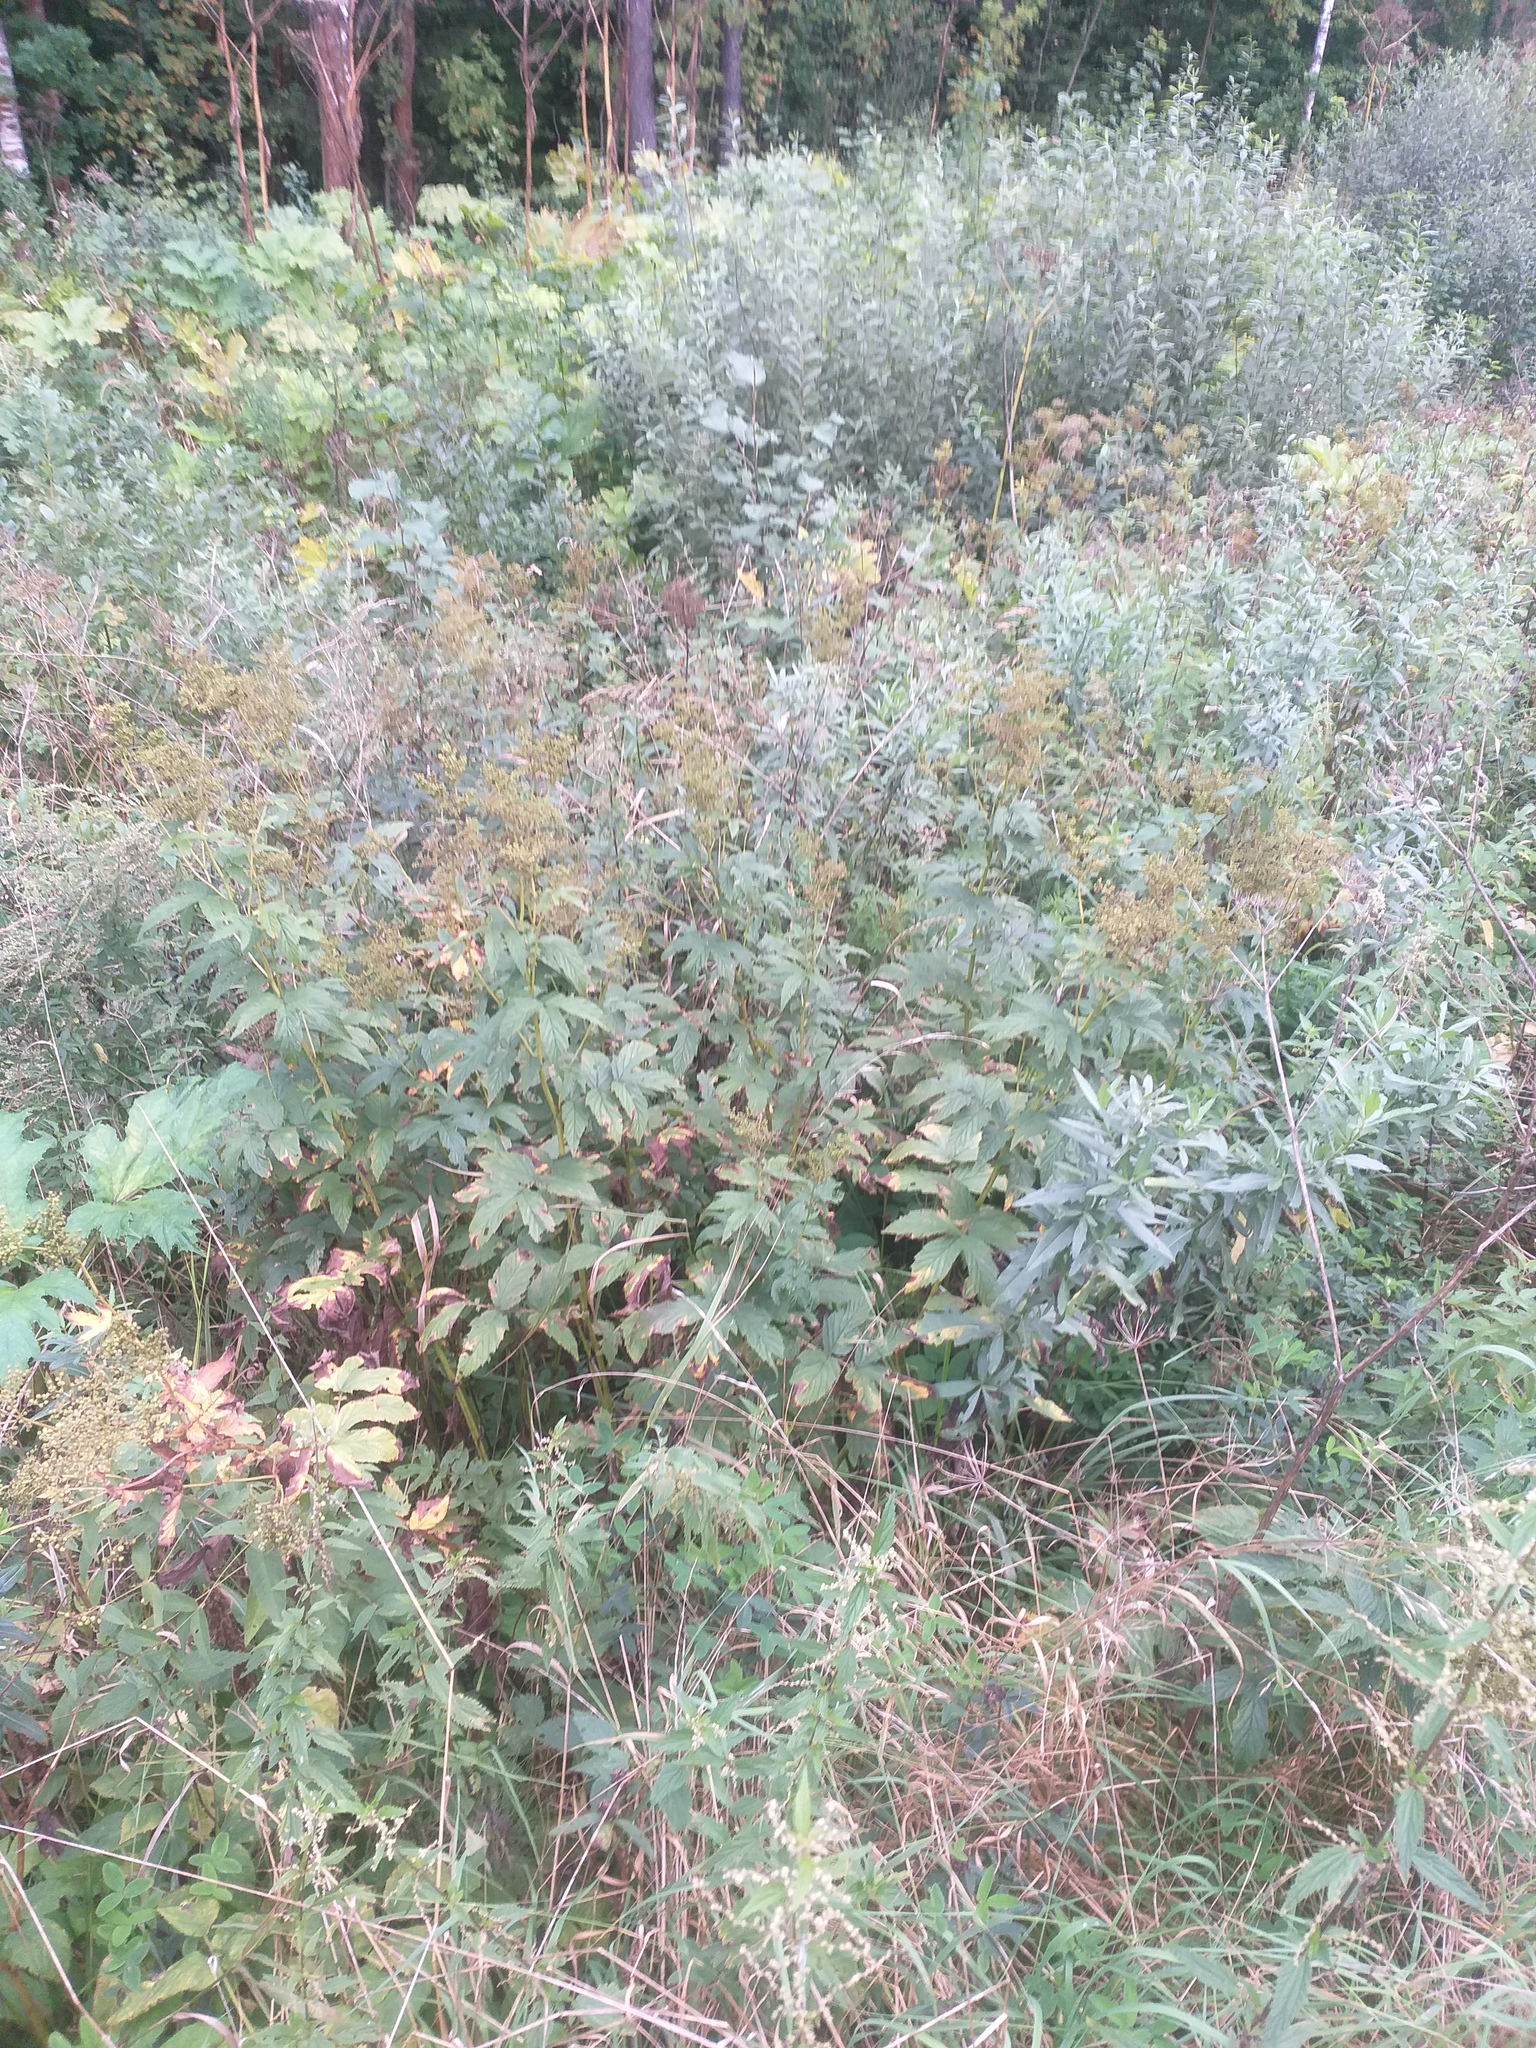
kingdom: Plantae
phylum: Tracheophyta
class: Magnoliopsida
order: Rosales
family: Rosaceae
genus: Filipendula
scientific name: Filipendula ulmaria
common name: Meadowsweet
